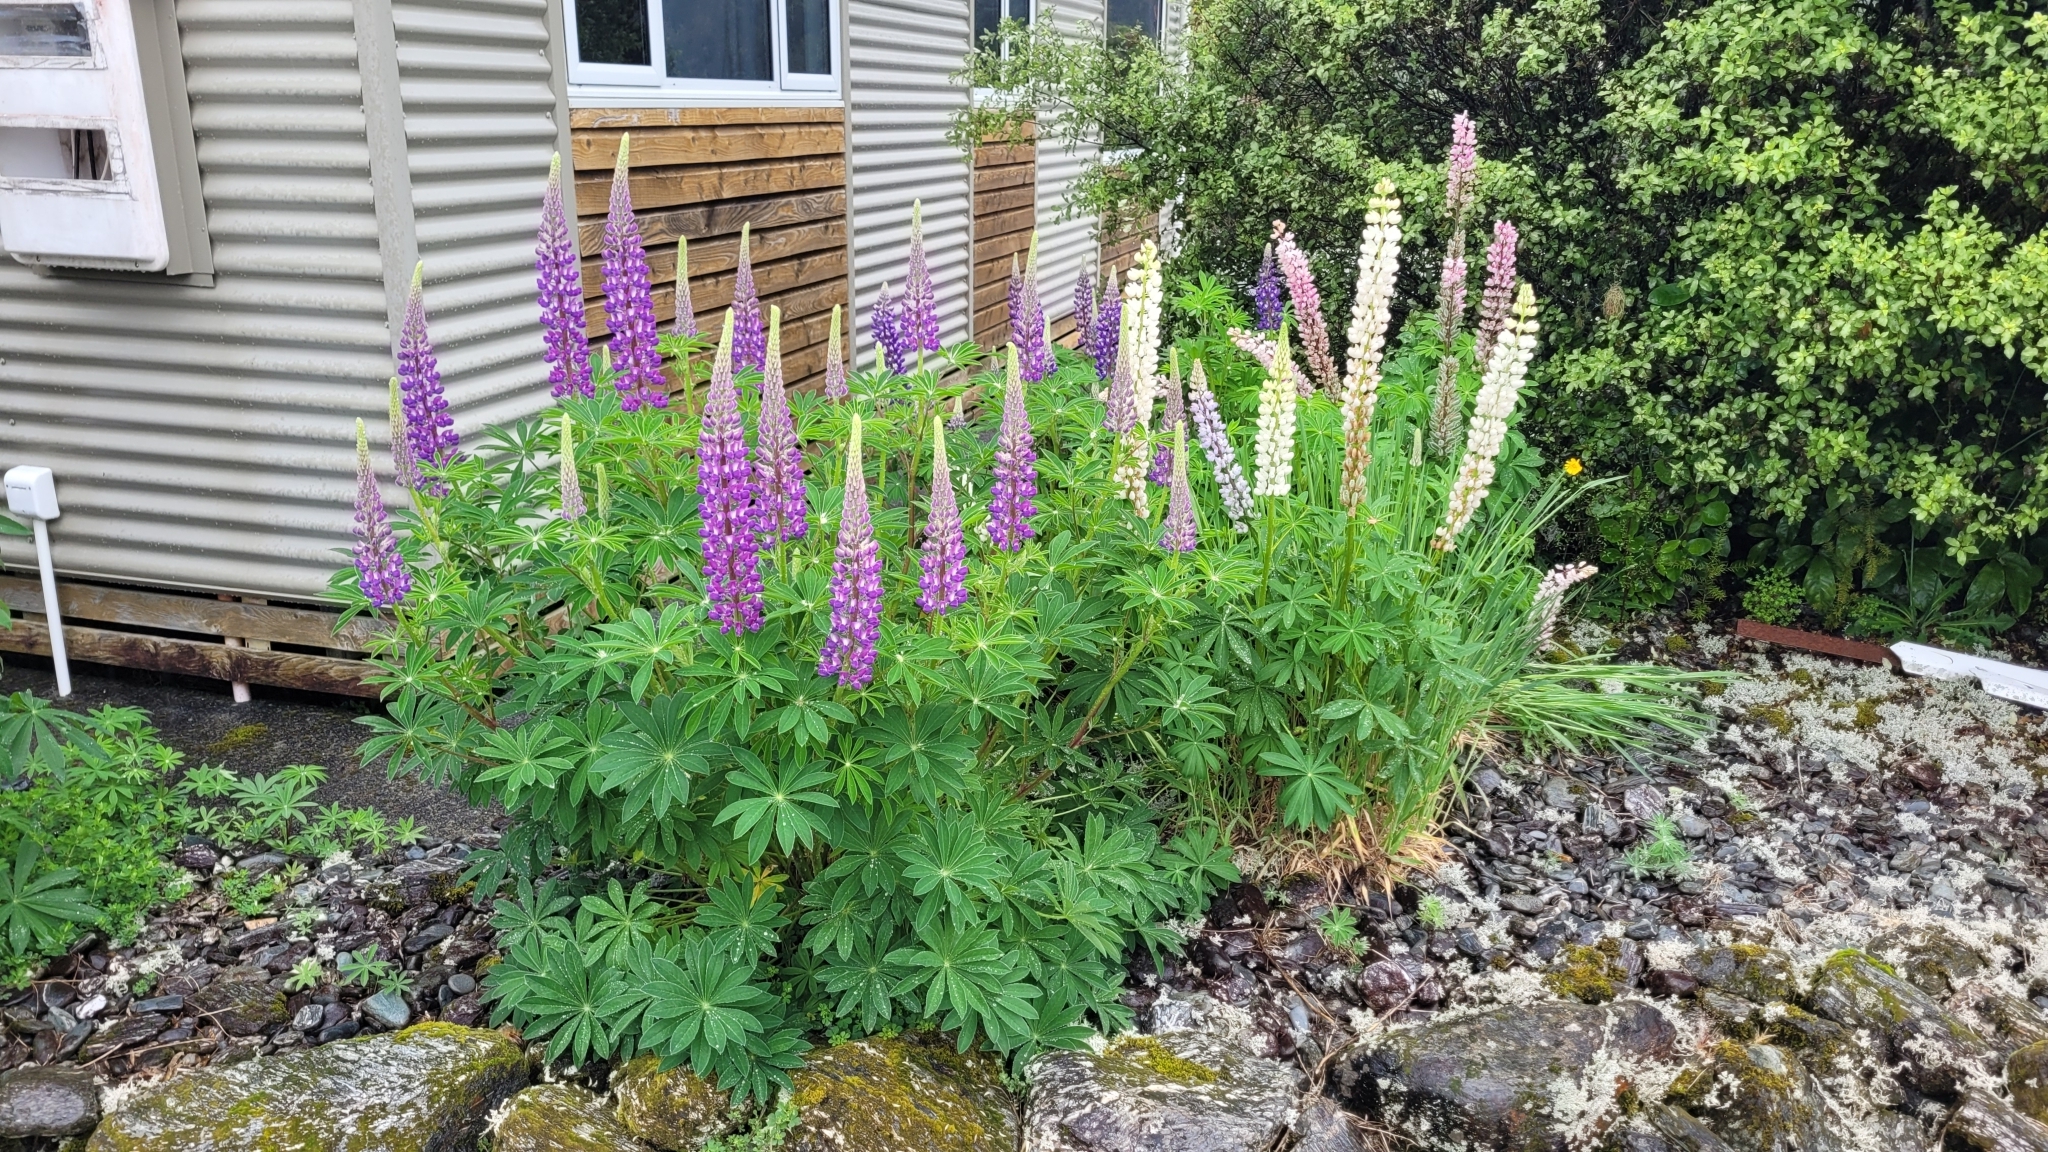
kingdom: Plantae
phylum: Tracheophyta
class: Magnoliopsida
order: Fabales
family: Fabaceae
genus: Lupinus
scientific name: Lupinus polyphyllus
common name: Garden lupin
